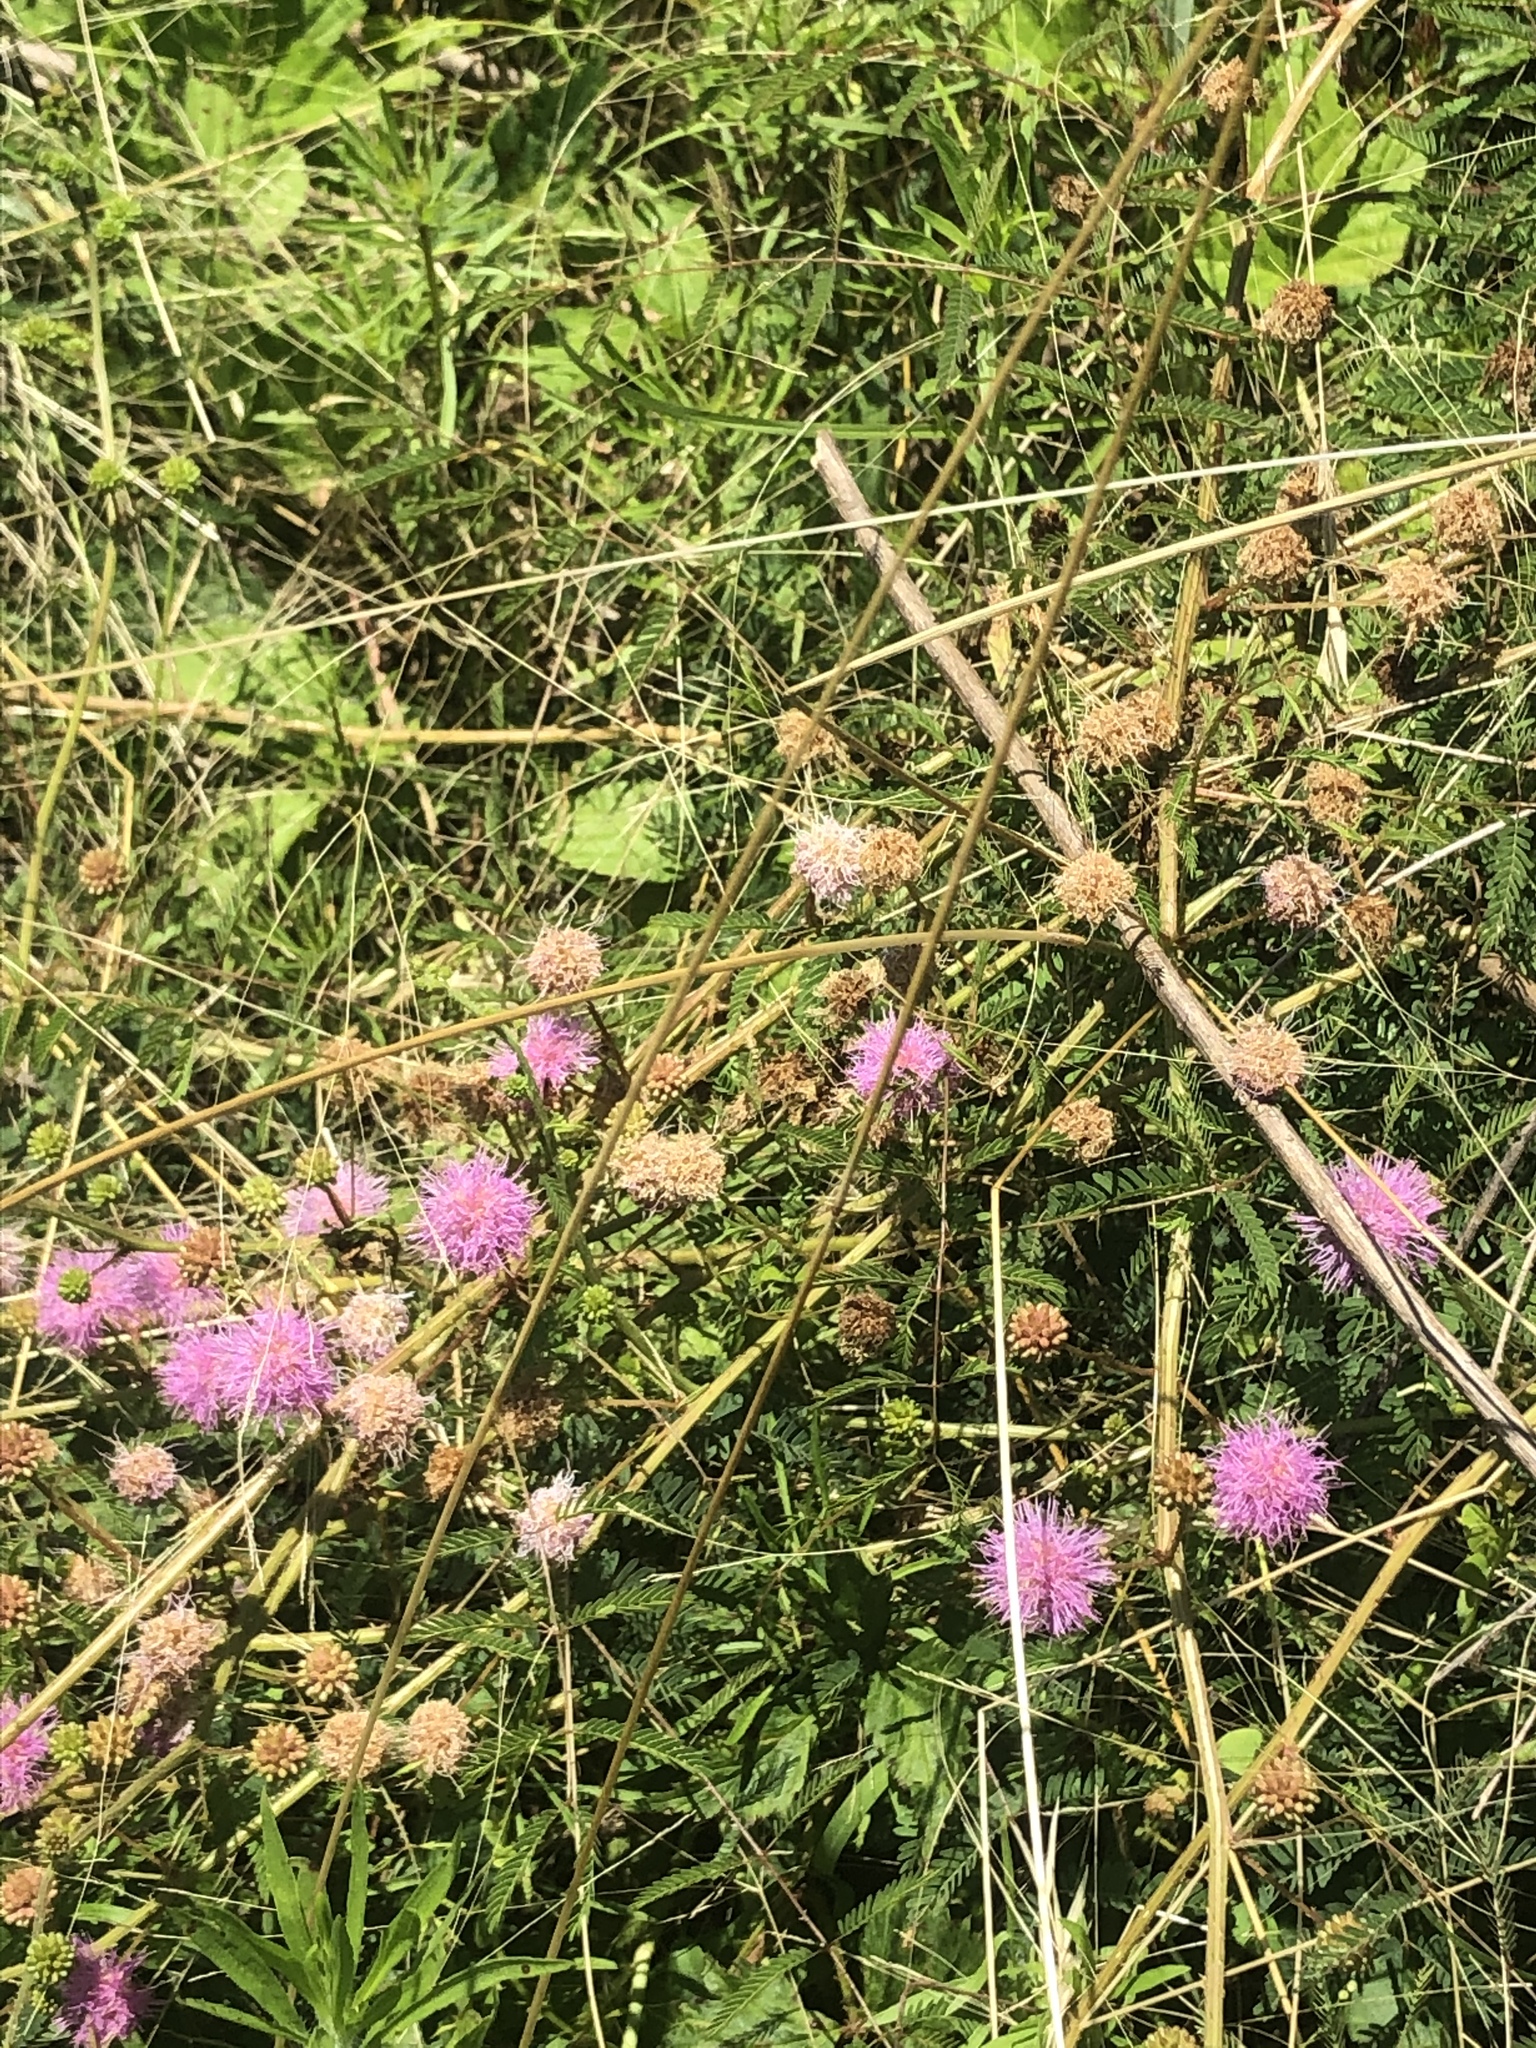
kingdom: Plantae
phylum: Tracheophyta
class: Magnoliopsida
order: Fabales
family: Fabaceae
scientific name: Fabaceae
